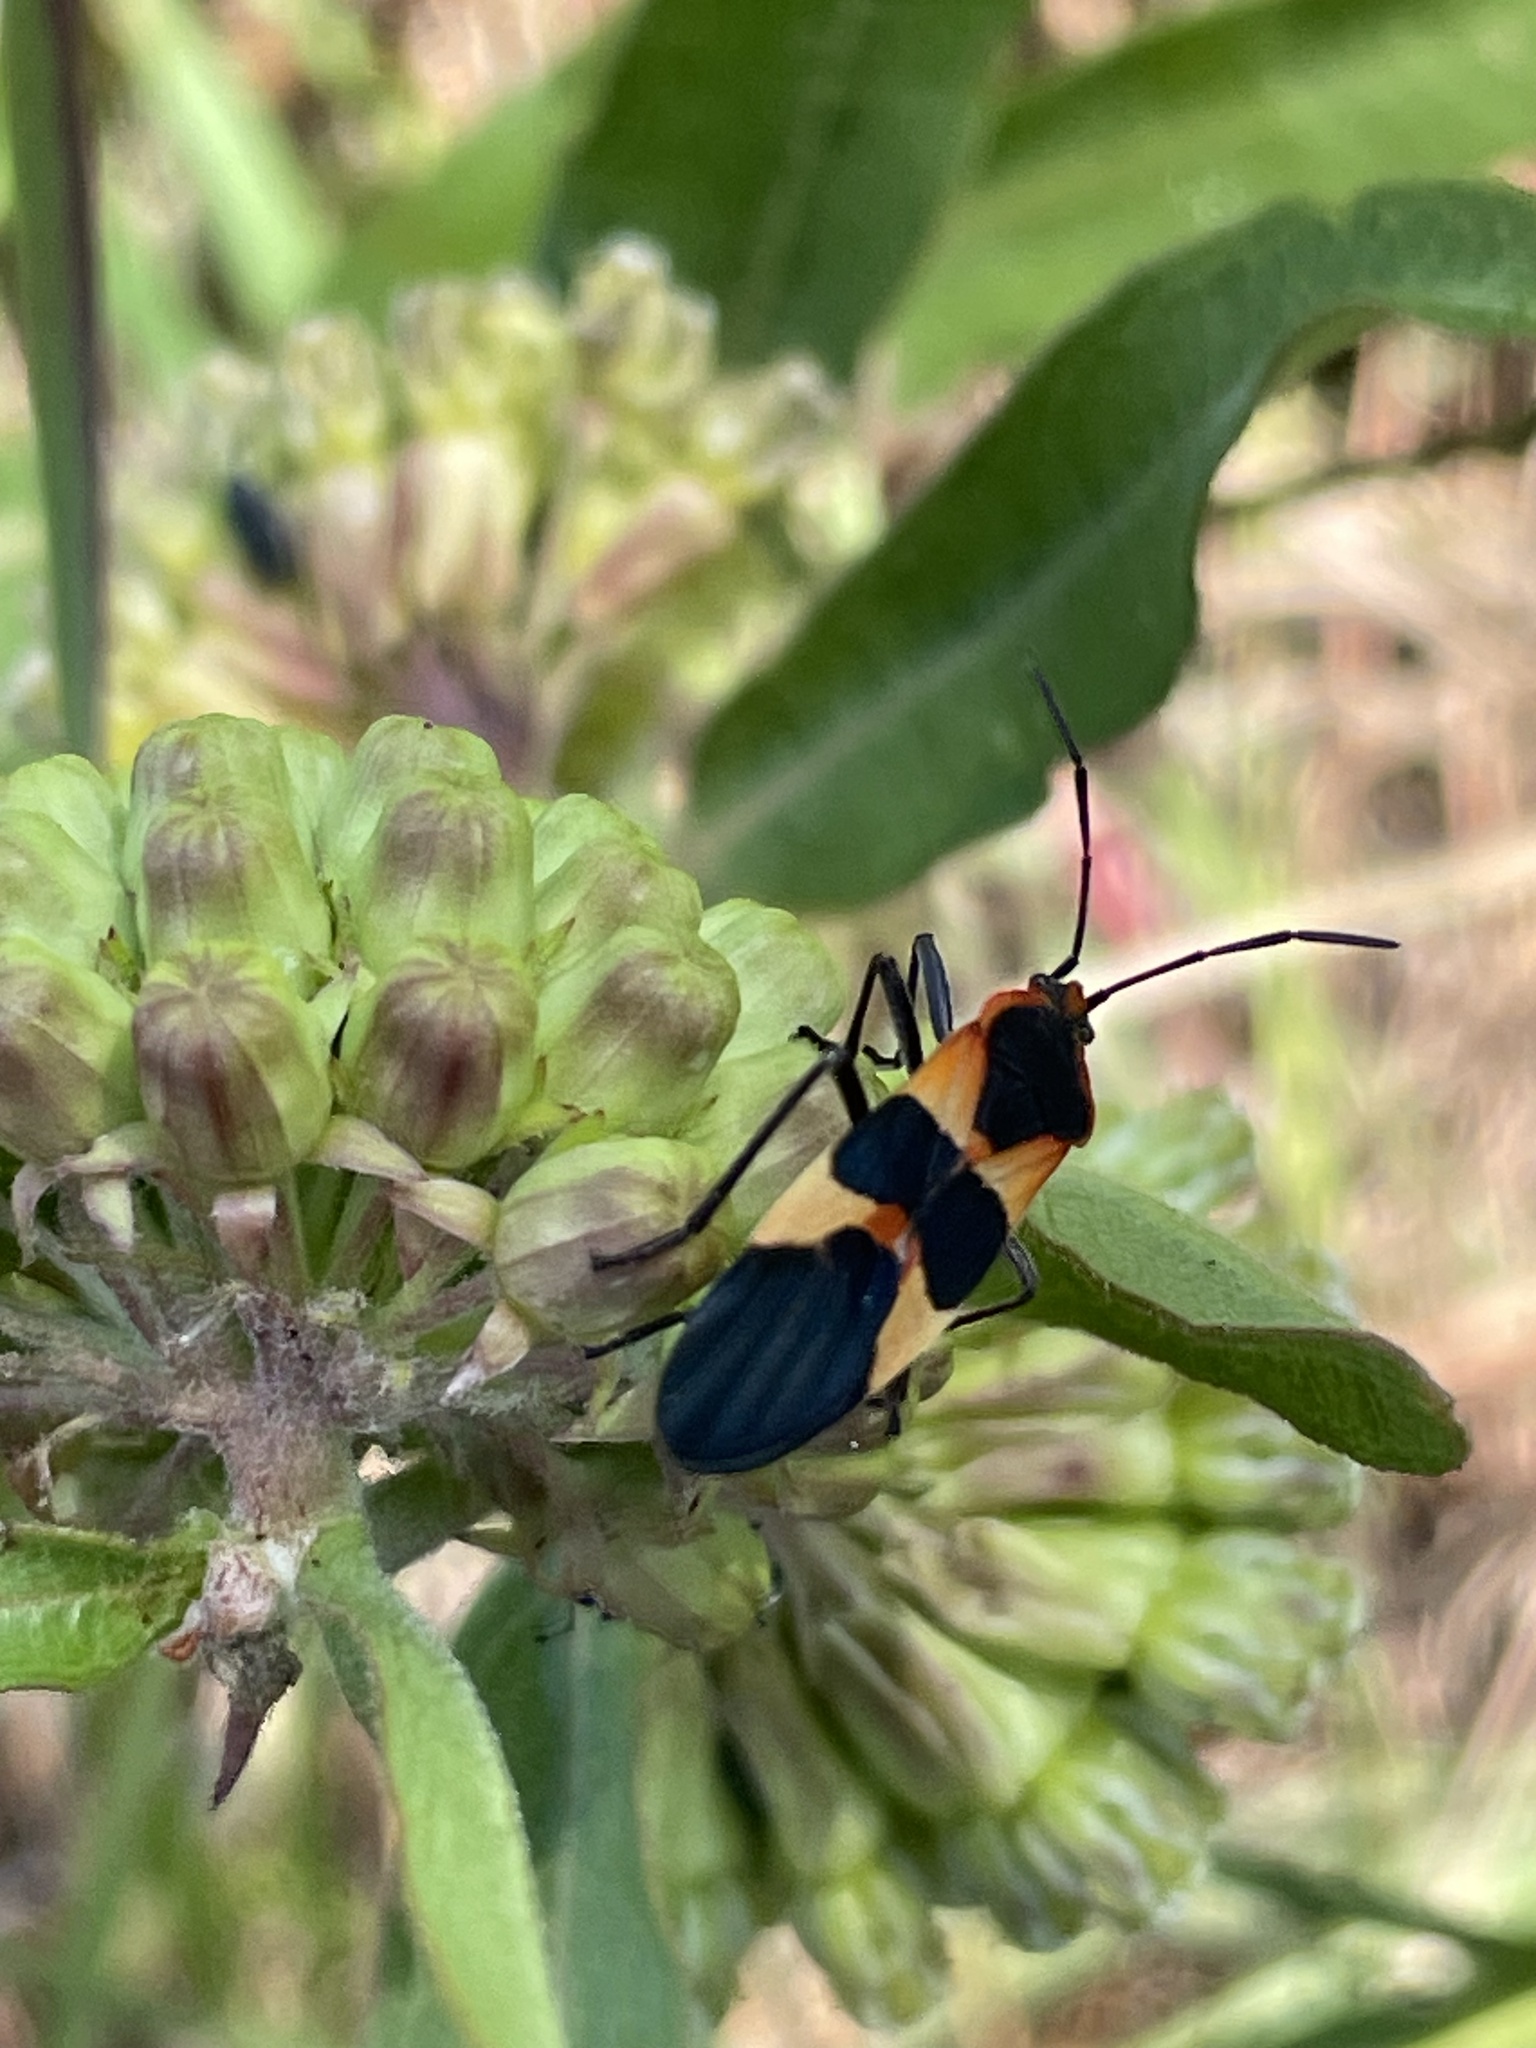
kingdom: Animalia
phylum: Arthropoda
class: Insecta
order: Hemiptera
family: Lygaeidae
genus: Oncopeltus
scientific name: Oncopeltus fasciatus
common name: Large milkweed bug
